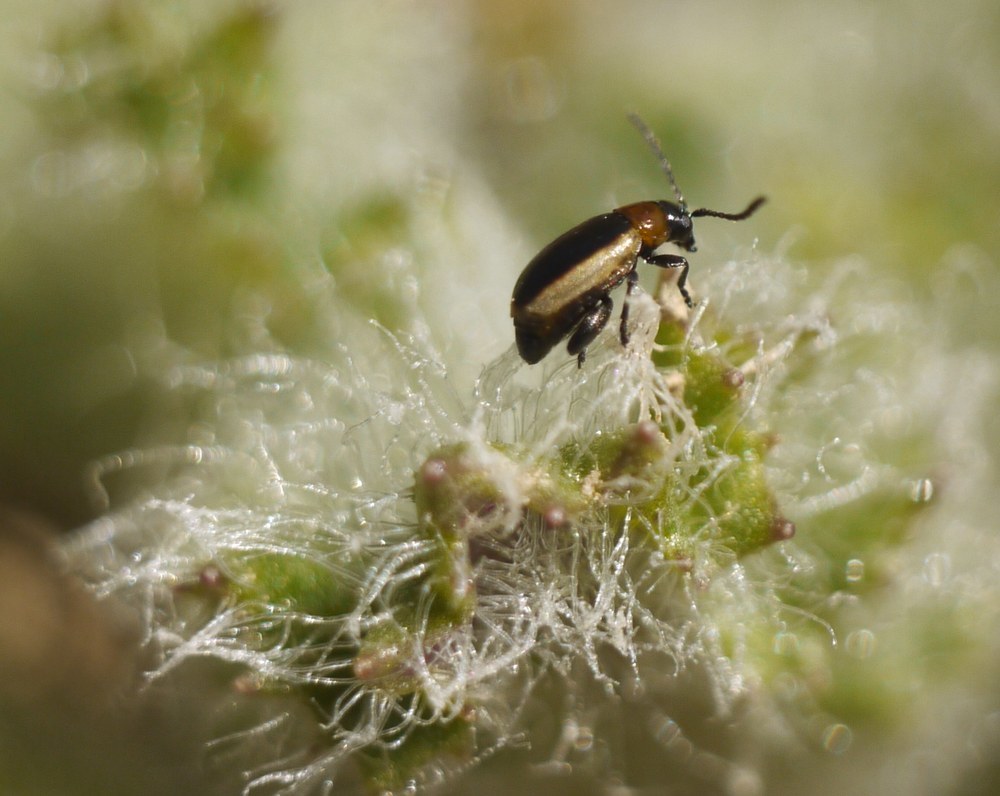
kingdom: Animalia
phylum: Arthropoda
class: Insecta
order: Coleoptera
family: Chrysomelidae
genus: Longitarsus
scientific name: Longitarsus dorsalis
